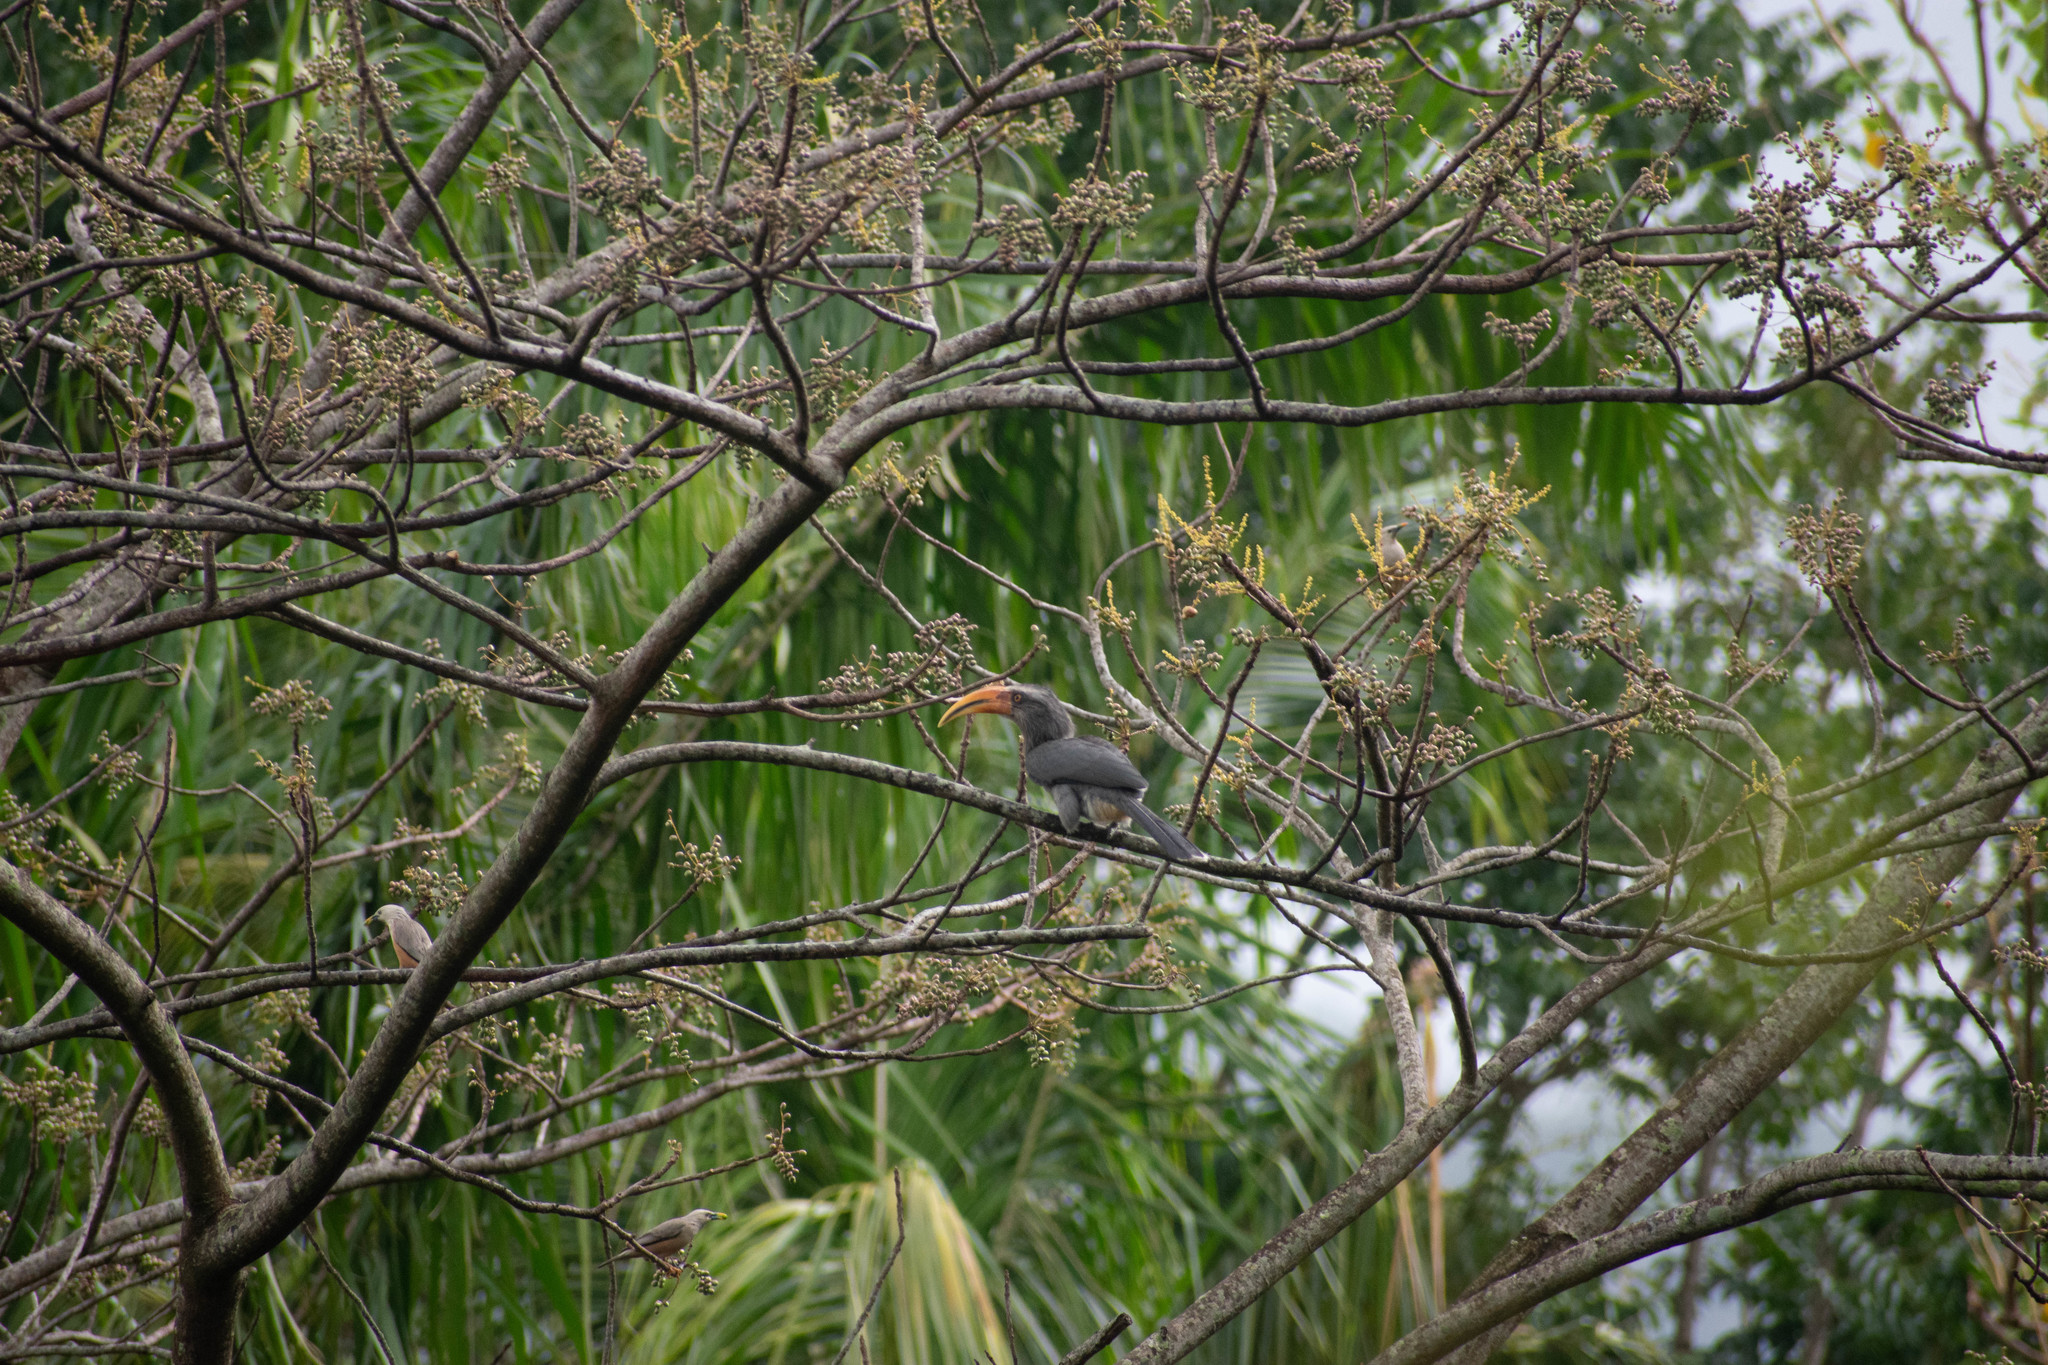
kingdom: Animalia
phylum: Chordata
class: Aves
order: Bucerotiformes
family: Bucerotidae
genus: Ocyceros
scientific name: Ocyceros griseus
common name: Malabar grey hornbill
